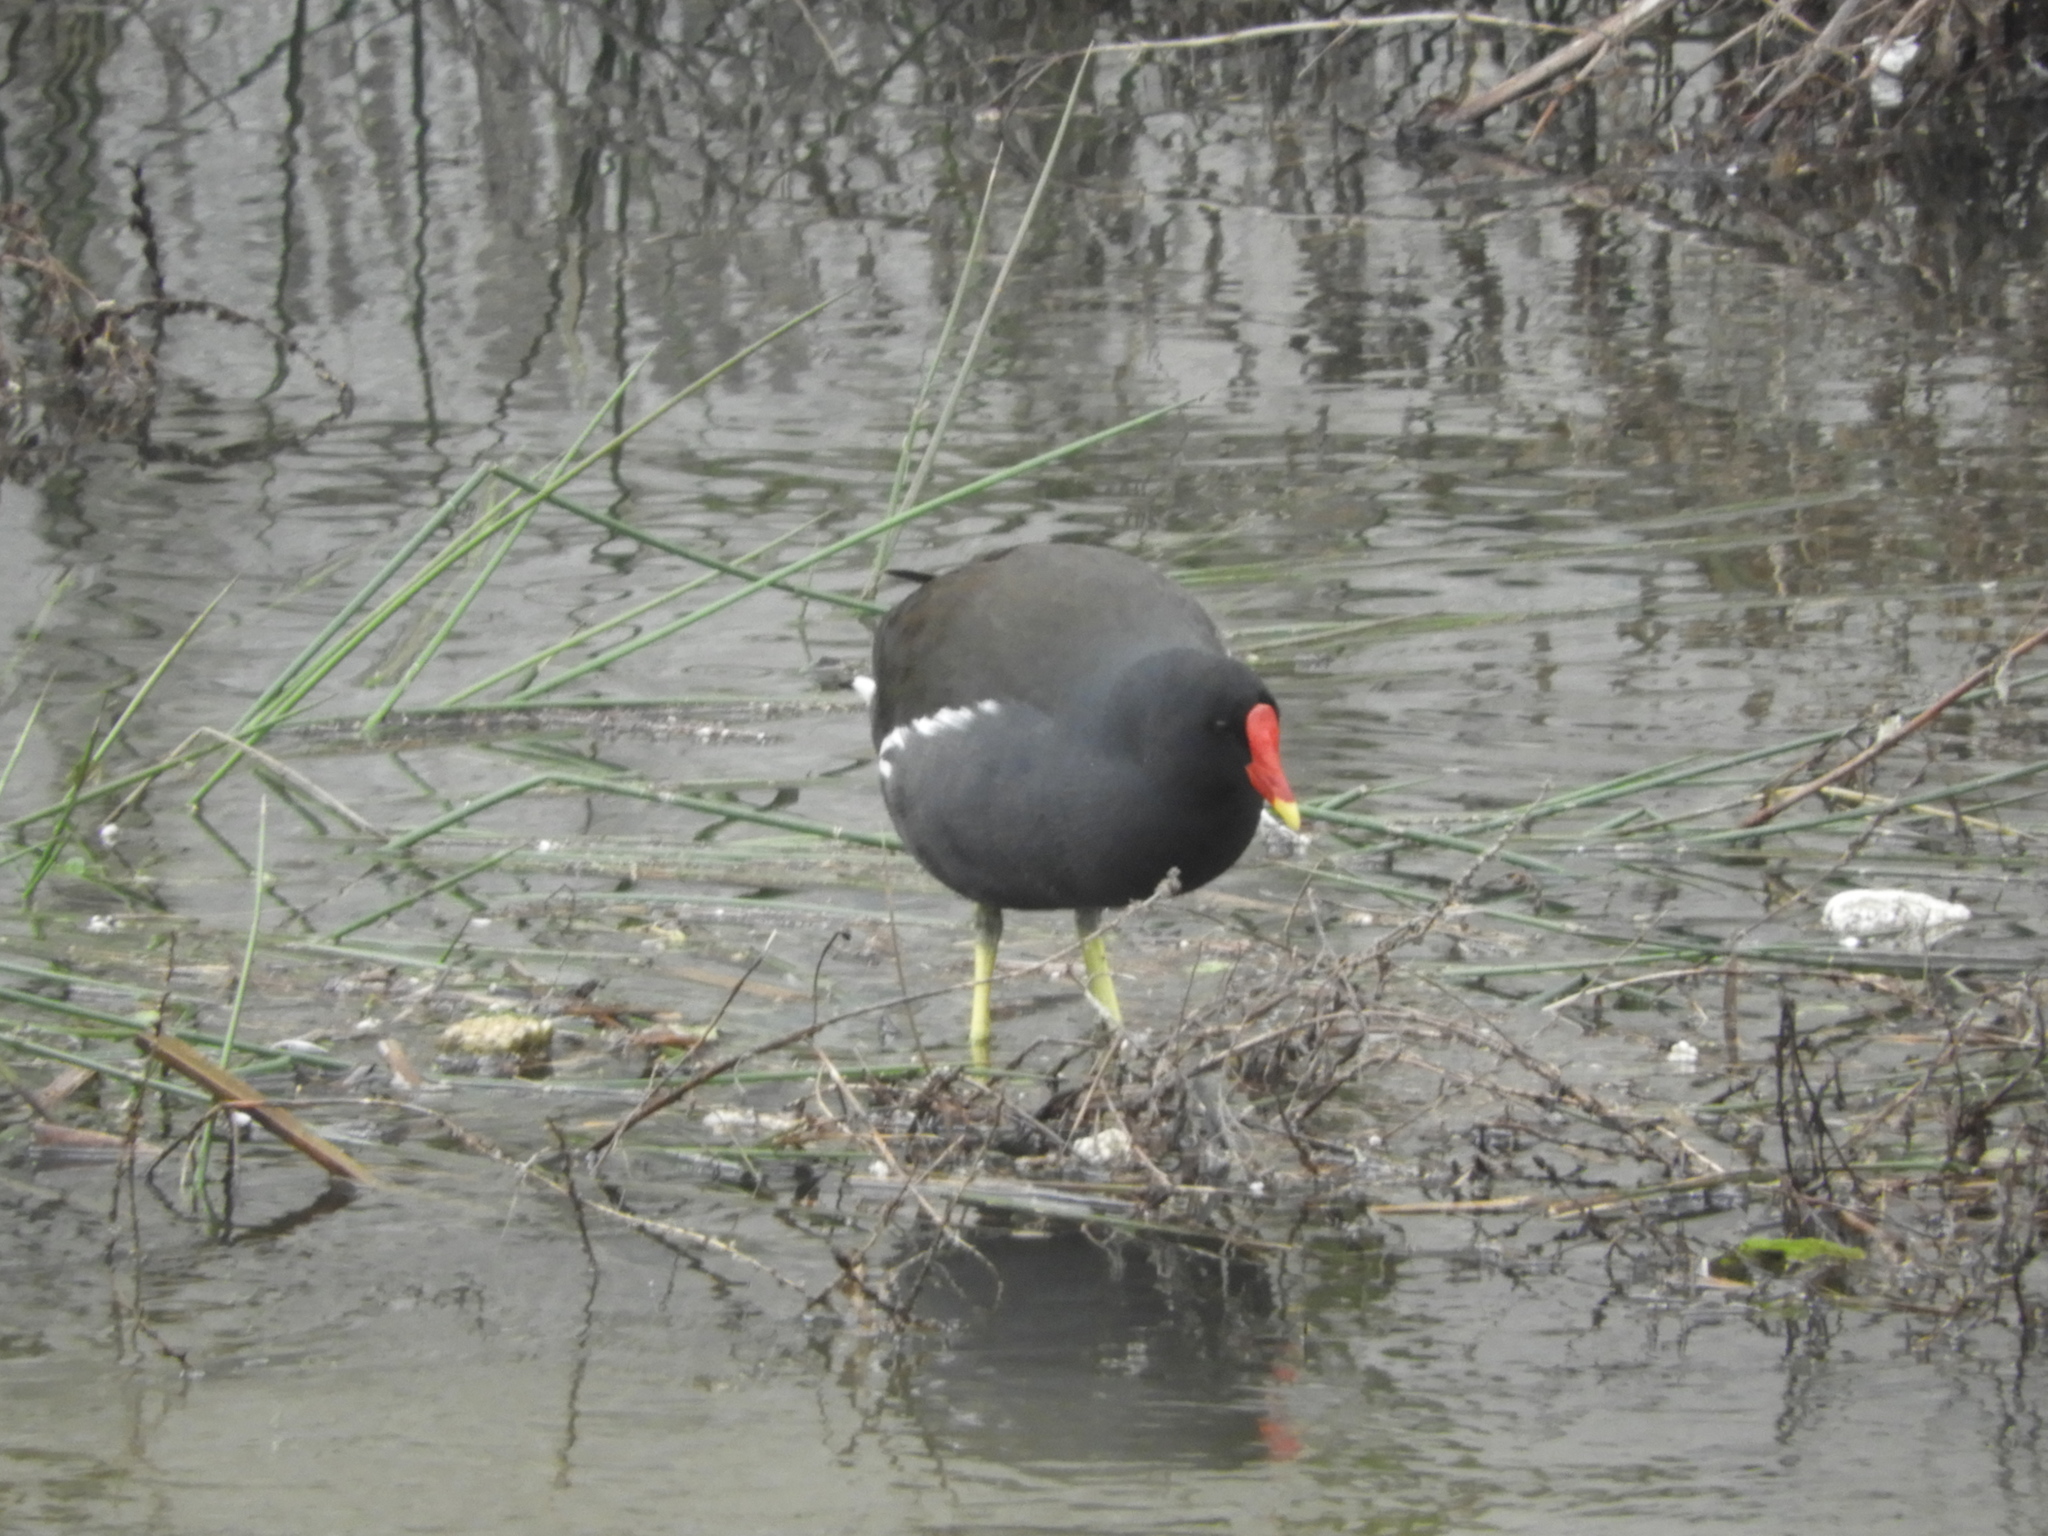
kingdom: Animalia
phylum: Chordata
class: Aves
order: Gruiformes
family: Rallidae
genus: Gallinula
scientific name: Gallinula chloropus
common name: Common moorhen
